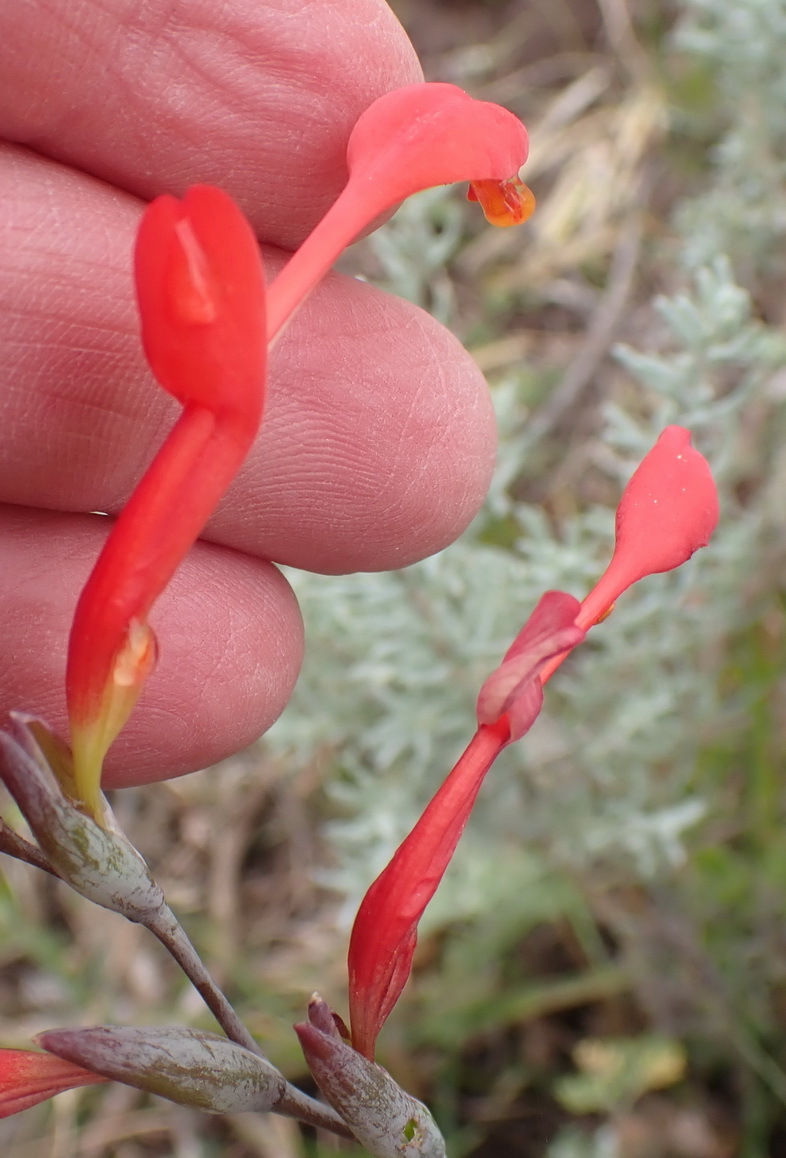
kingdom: Plantae
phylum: Tracheophyta
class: Liliopsida
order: Asparagales
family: Iridaceae
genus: Gladiolus
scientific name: Gladiolus cunonius
